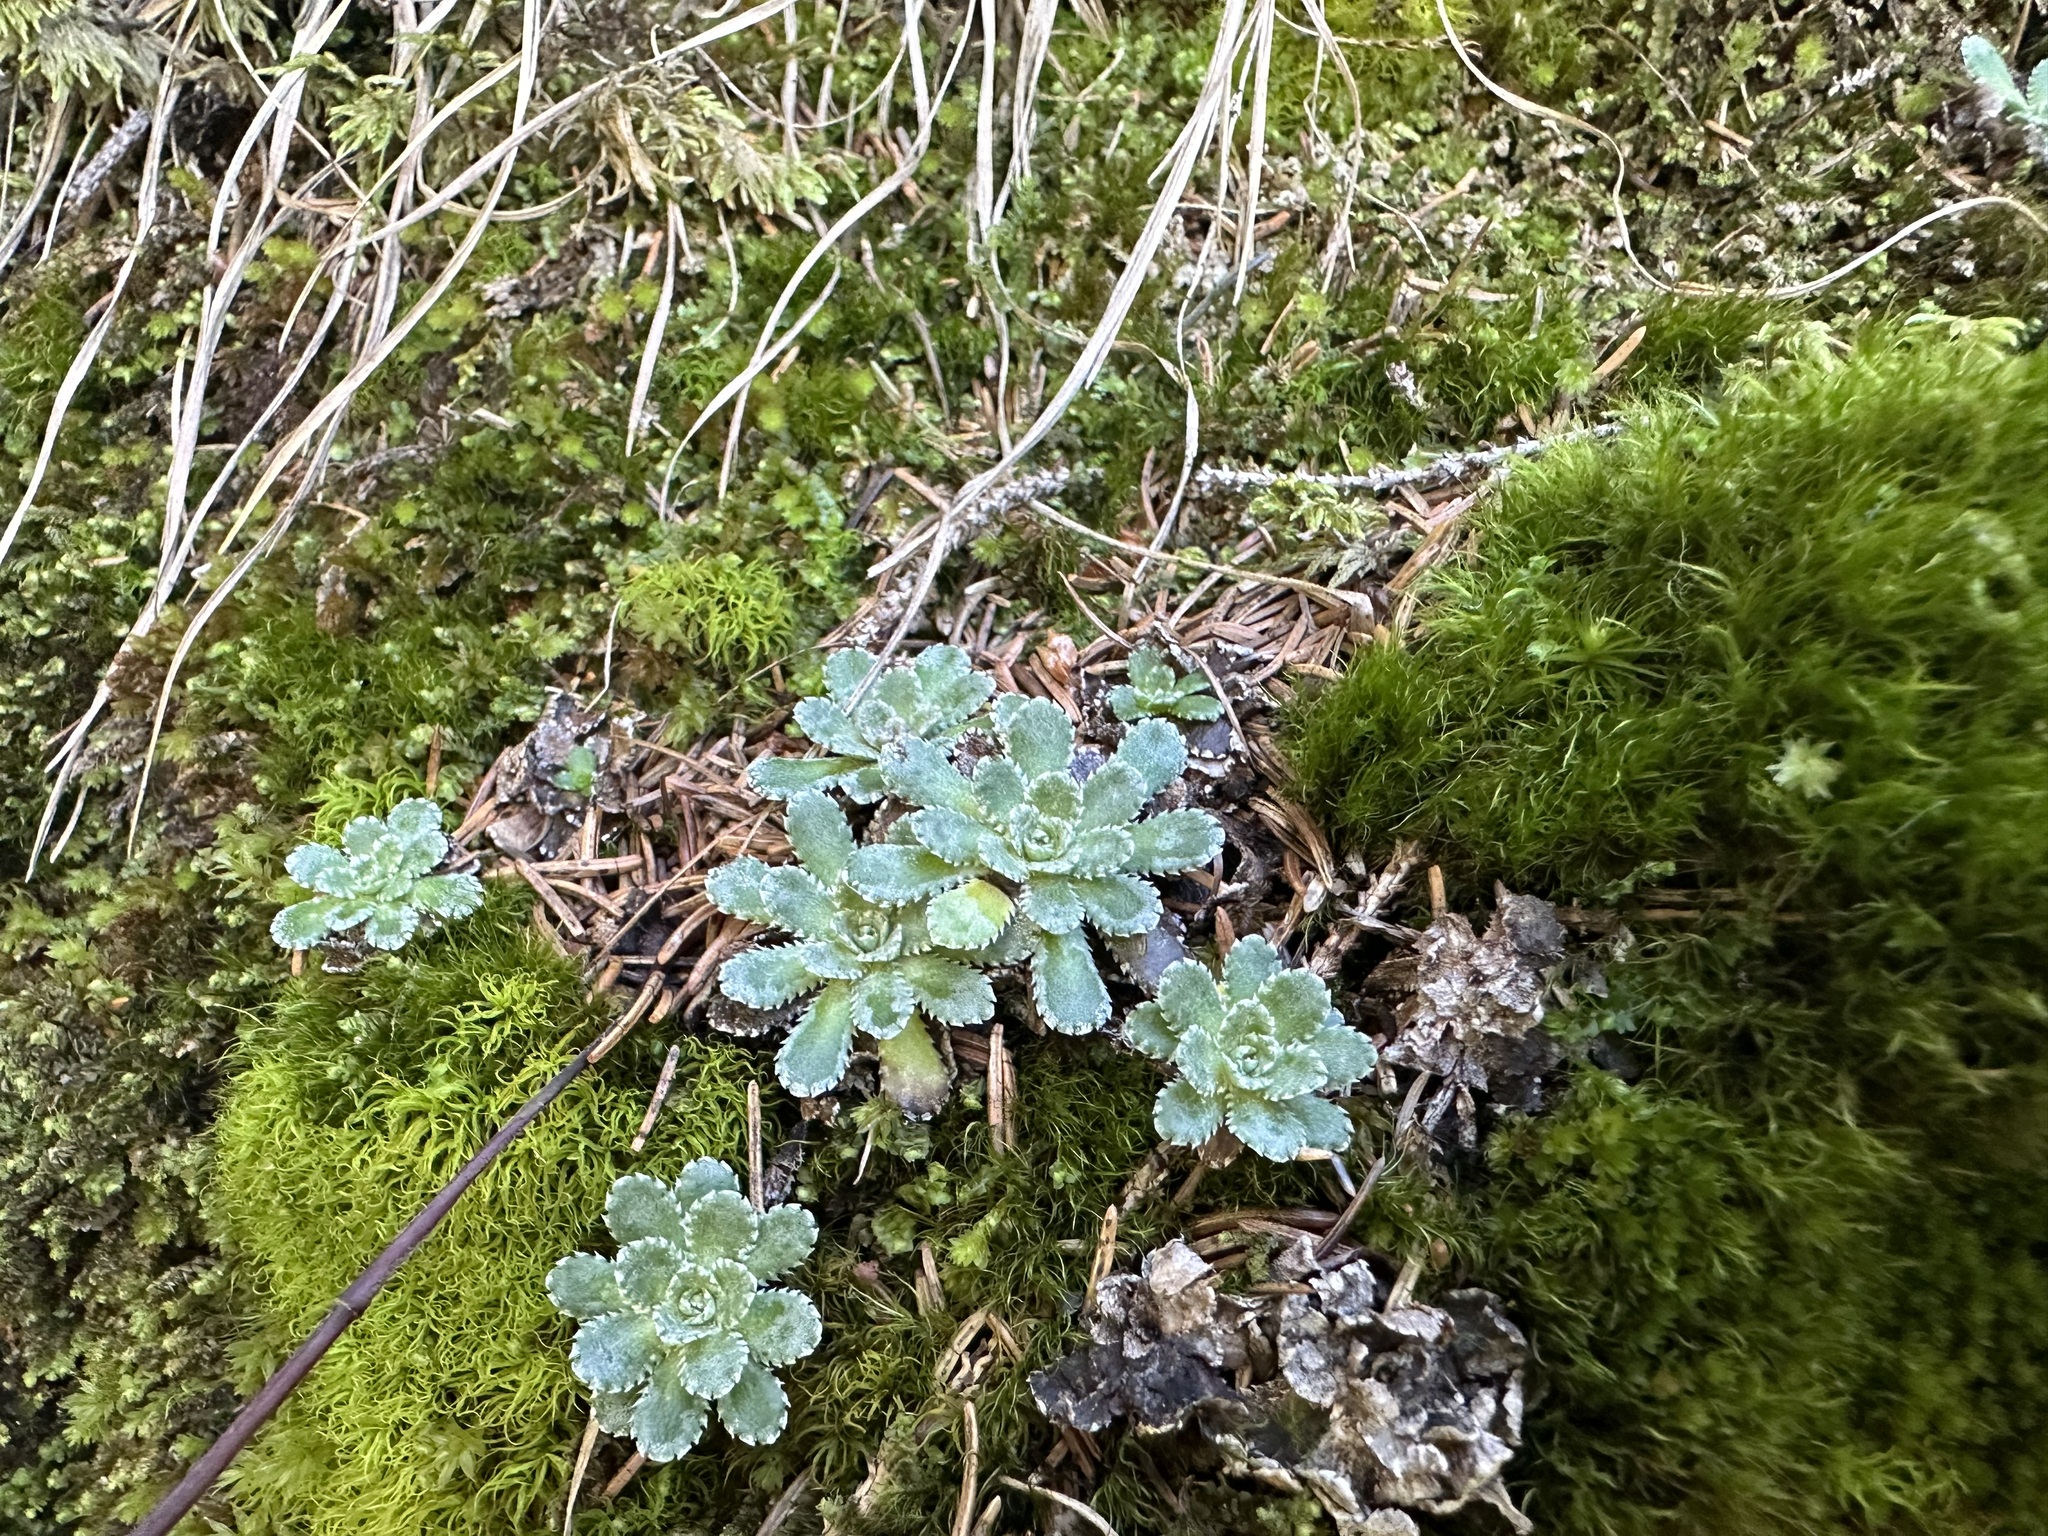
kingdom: Plantae
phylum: Tracheophyta
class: Magnoliopsida
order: Saxifragales
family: Saxifragaceae
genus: Saxifraga
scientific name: Saxifraga paniculata
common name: Livelong saxifrage
